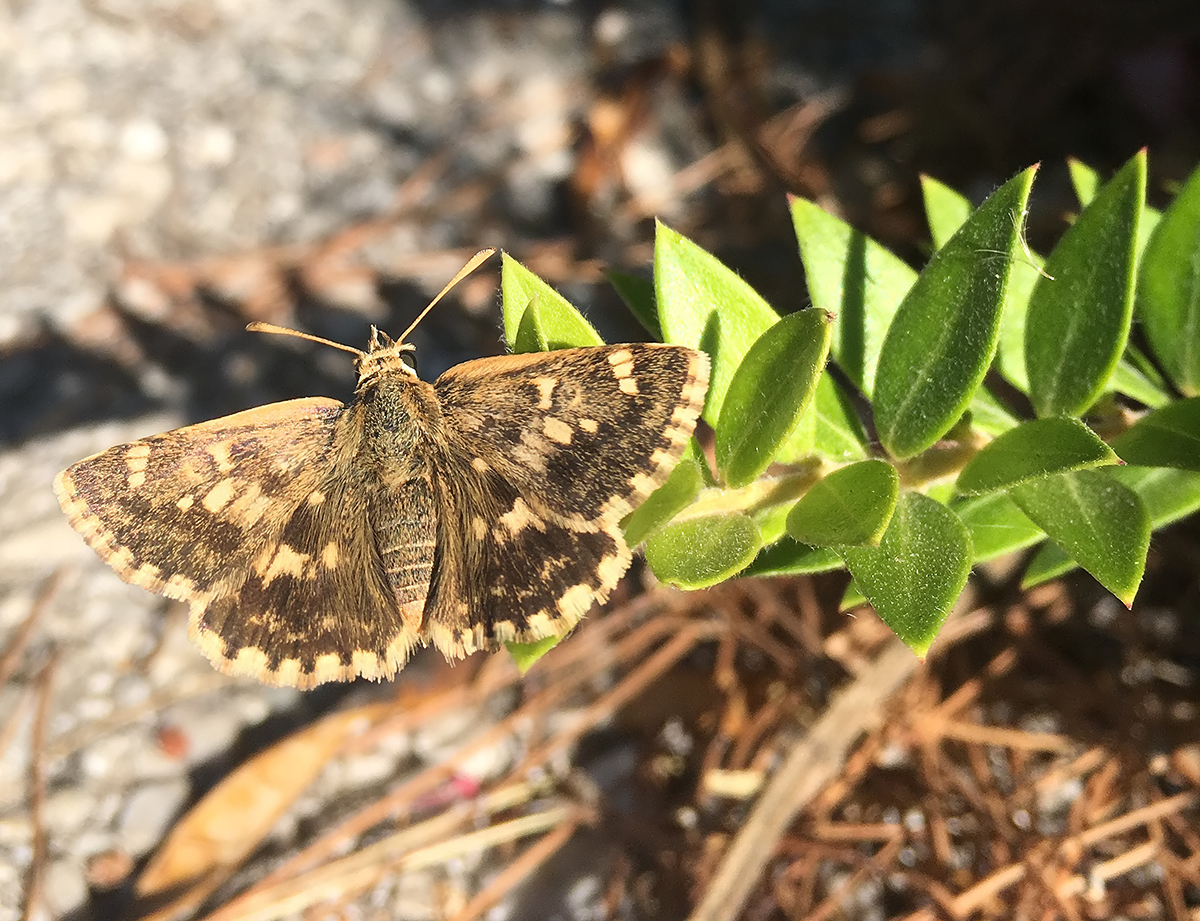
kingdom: Animalia
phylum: Arthropoda
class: Insecta
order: Lepidoptera
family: Hesperiidae
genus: Syrichtus
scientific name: Syrichtus proto
